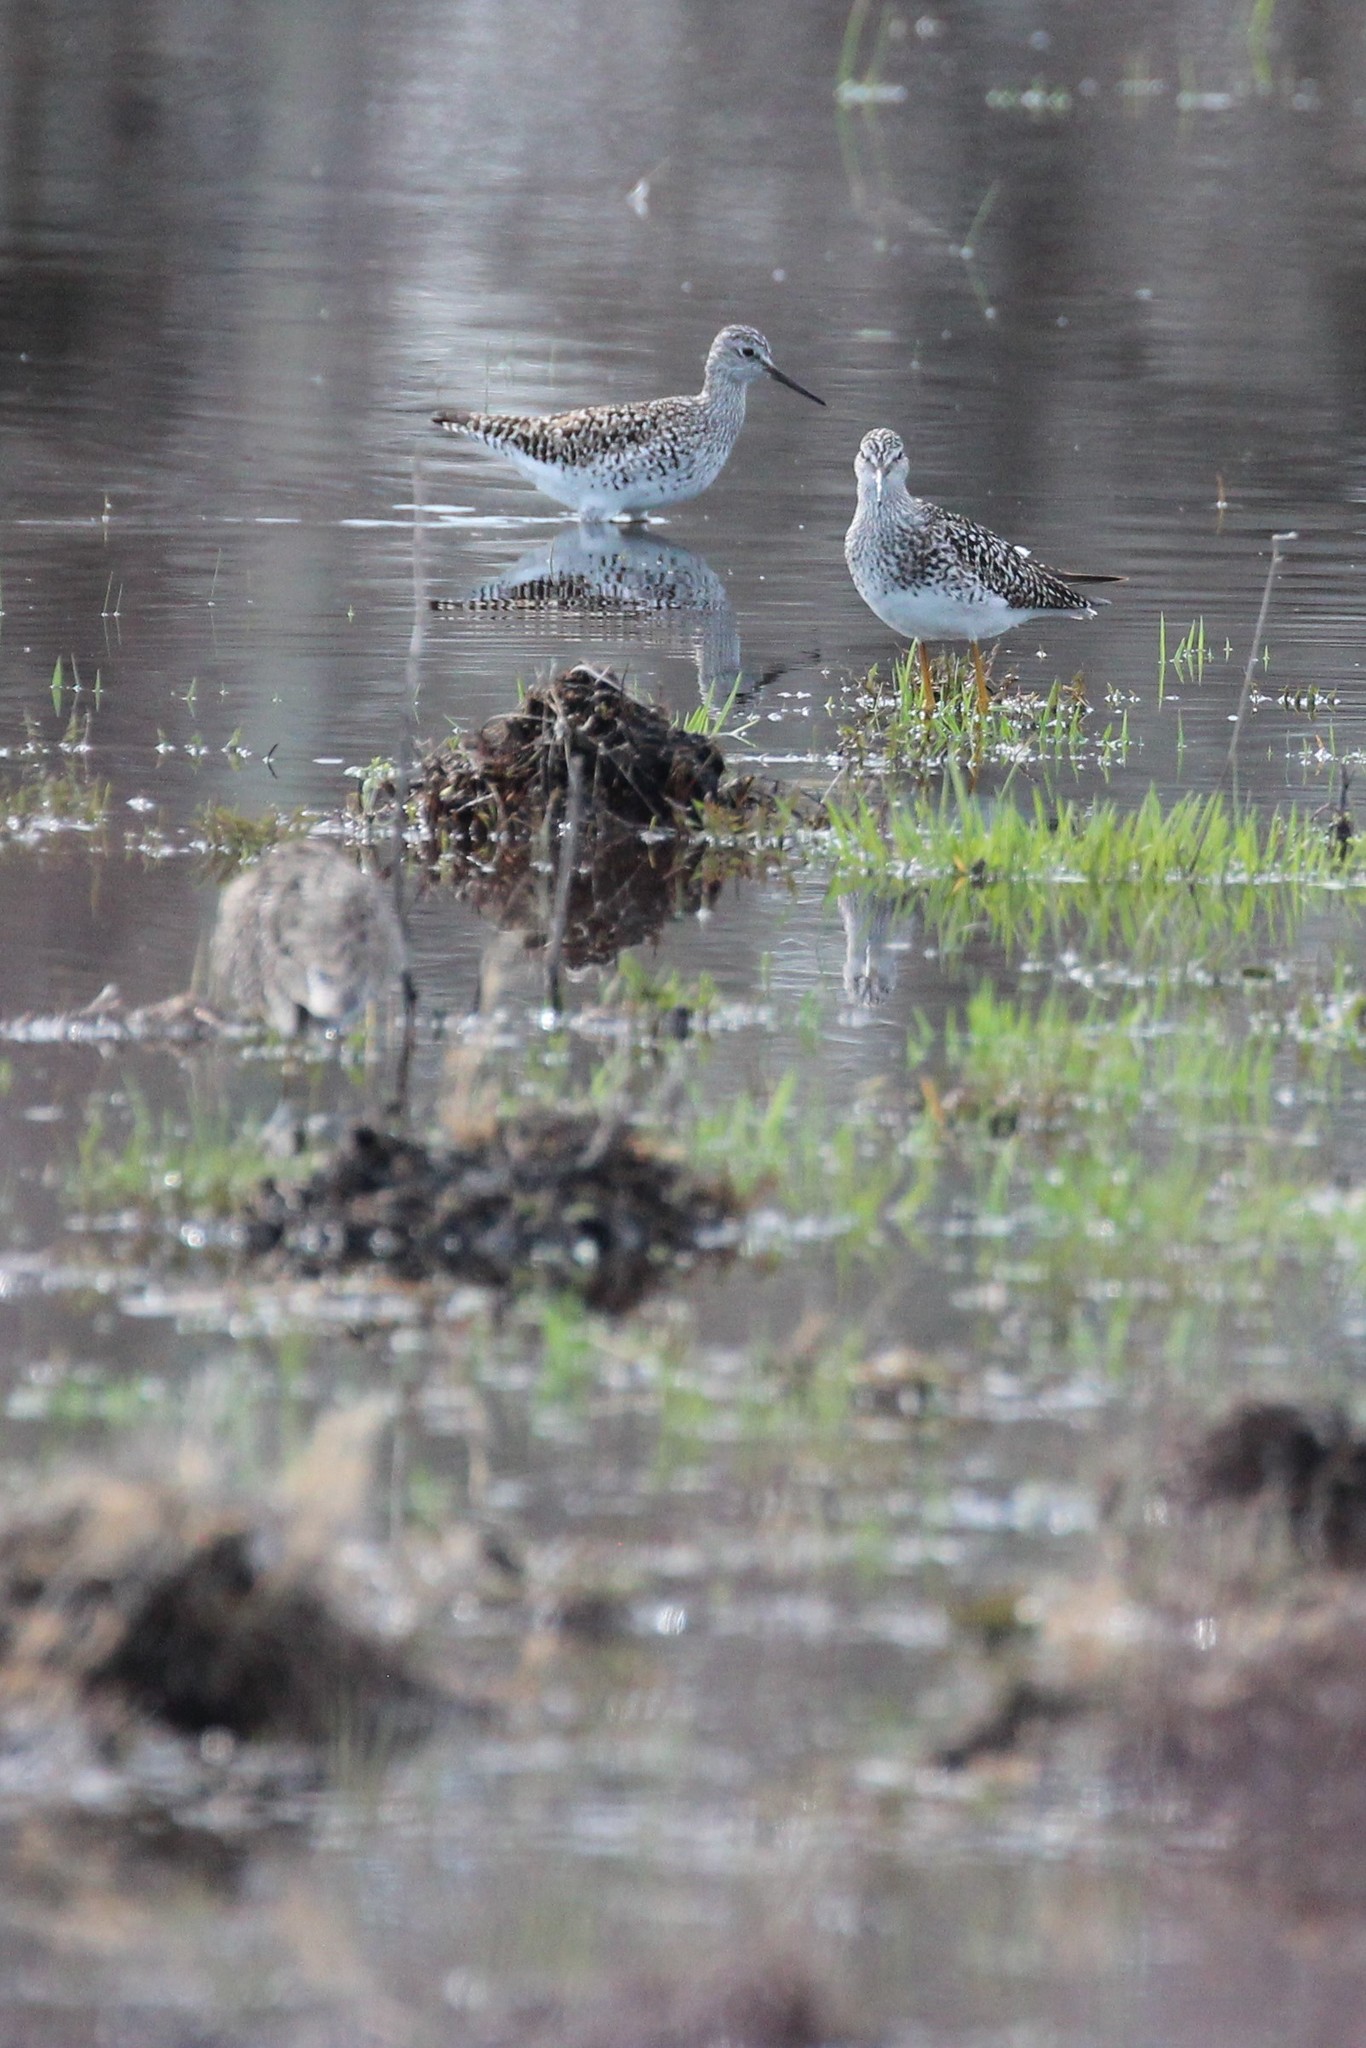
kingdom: Animalia
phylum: Chordata
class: Aves
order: Charadriiformes
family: Scolopacidae
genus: Tringa
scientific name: Tringa flavipes
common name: Lesser yellowlegs
